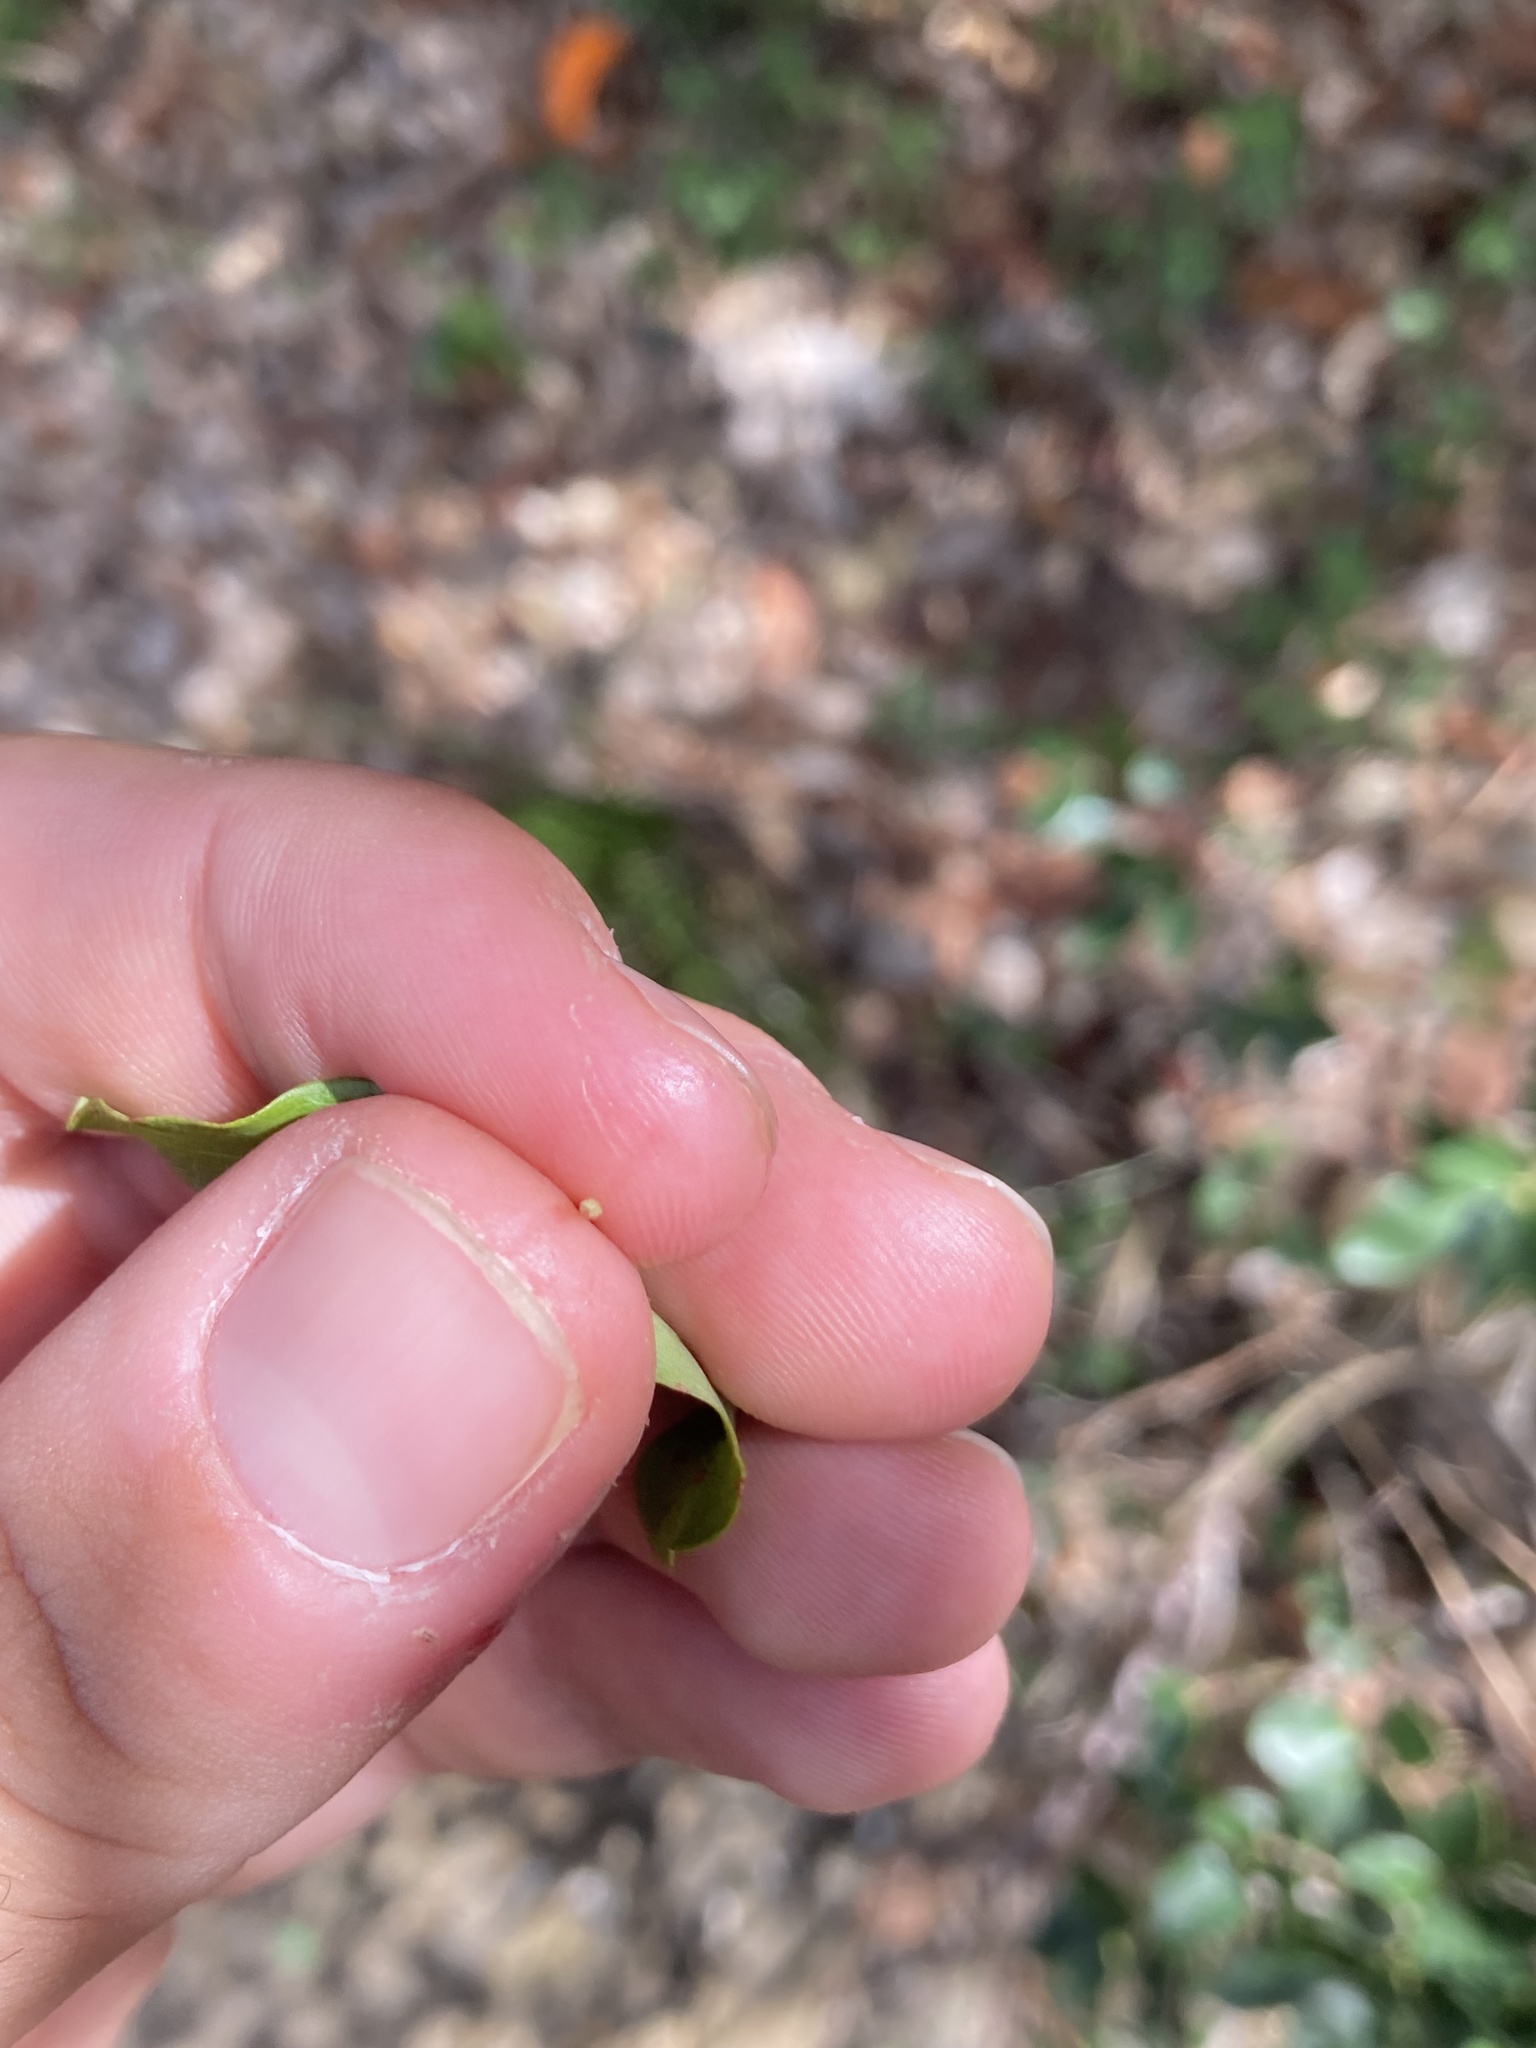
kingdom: Plantae
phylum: Tracheophyta
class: Magnoliopsida
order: Sapindales
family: Sapindaceae
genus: Acer
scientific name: Acer monspessulanum
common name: Montpellier maple
